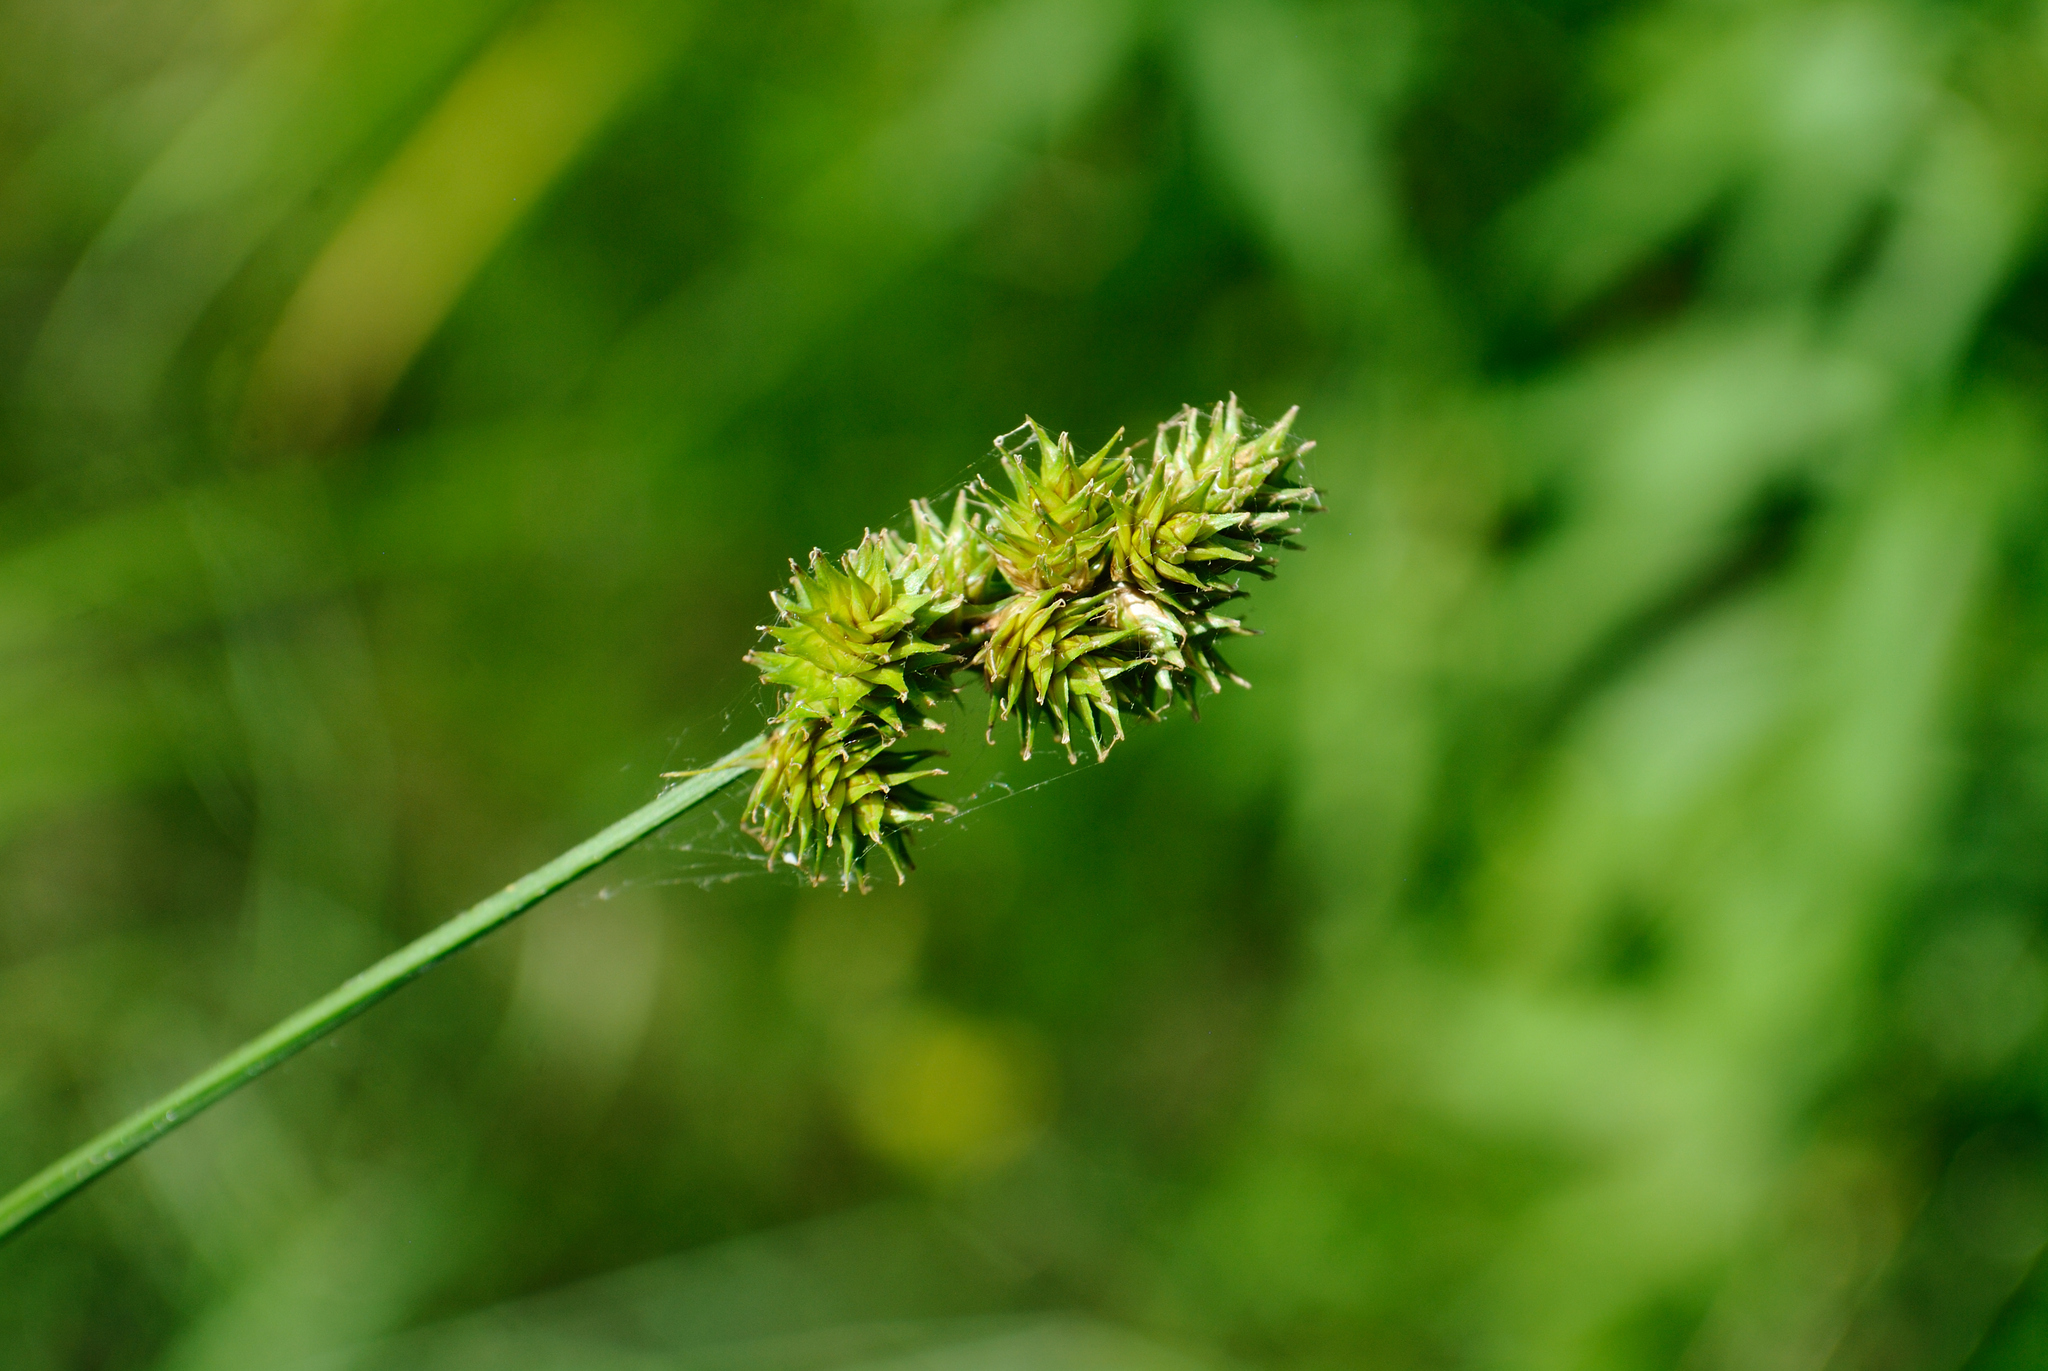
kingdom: Plantae
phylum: Tracheophyta
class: Liliopsida
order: Poales
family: Cyperaceae
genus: Carex
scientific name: Carex cephaloidea
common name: Thin-leaved sedge
